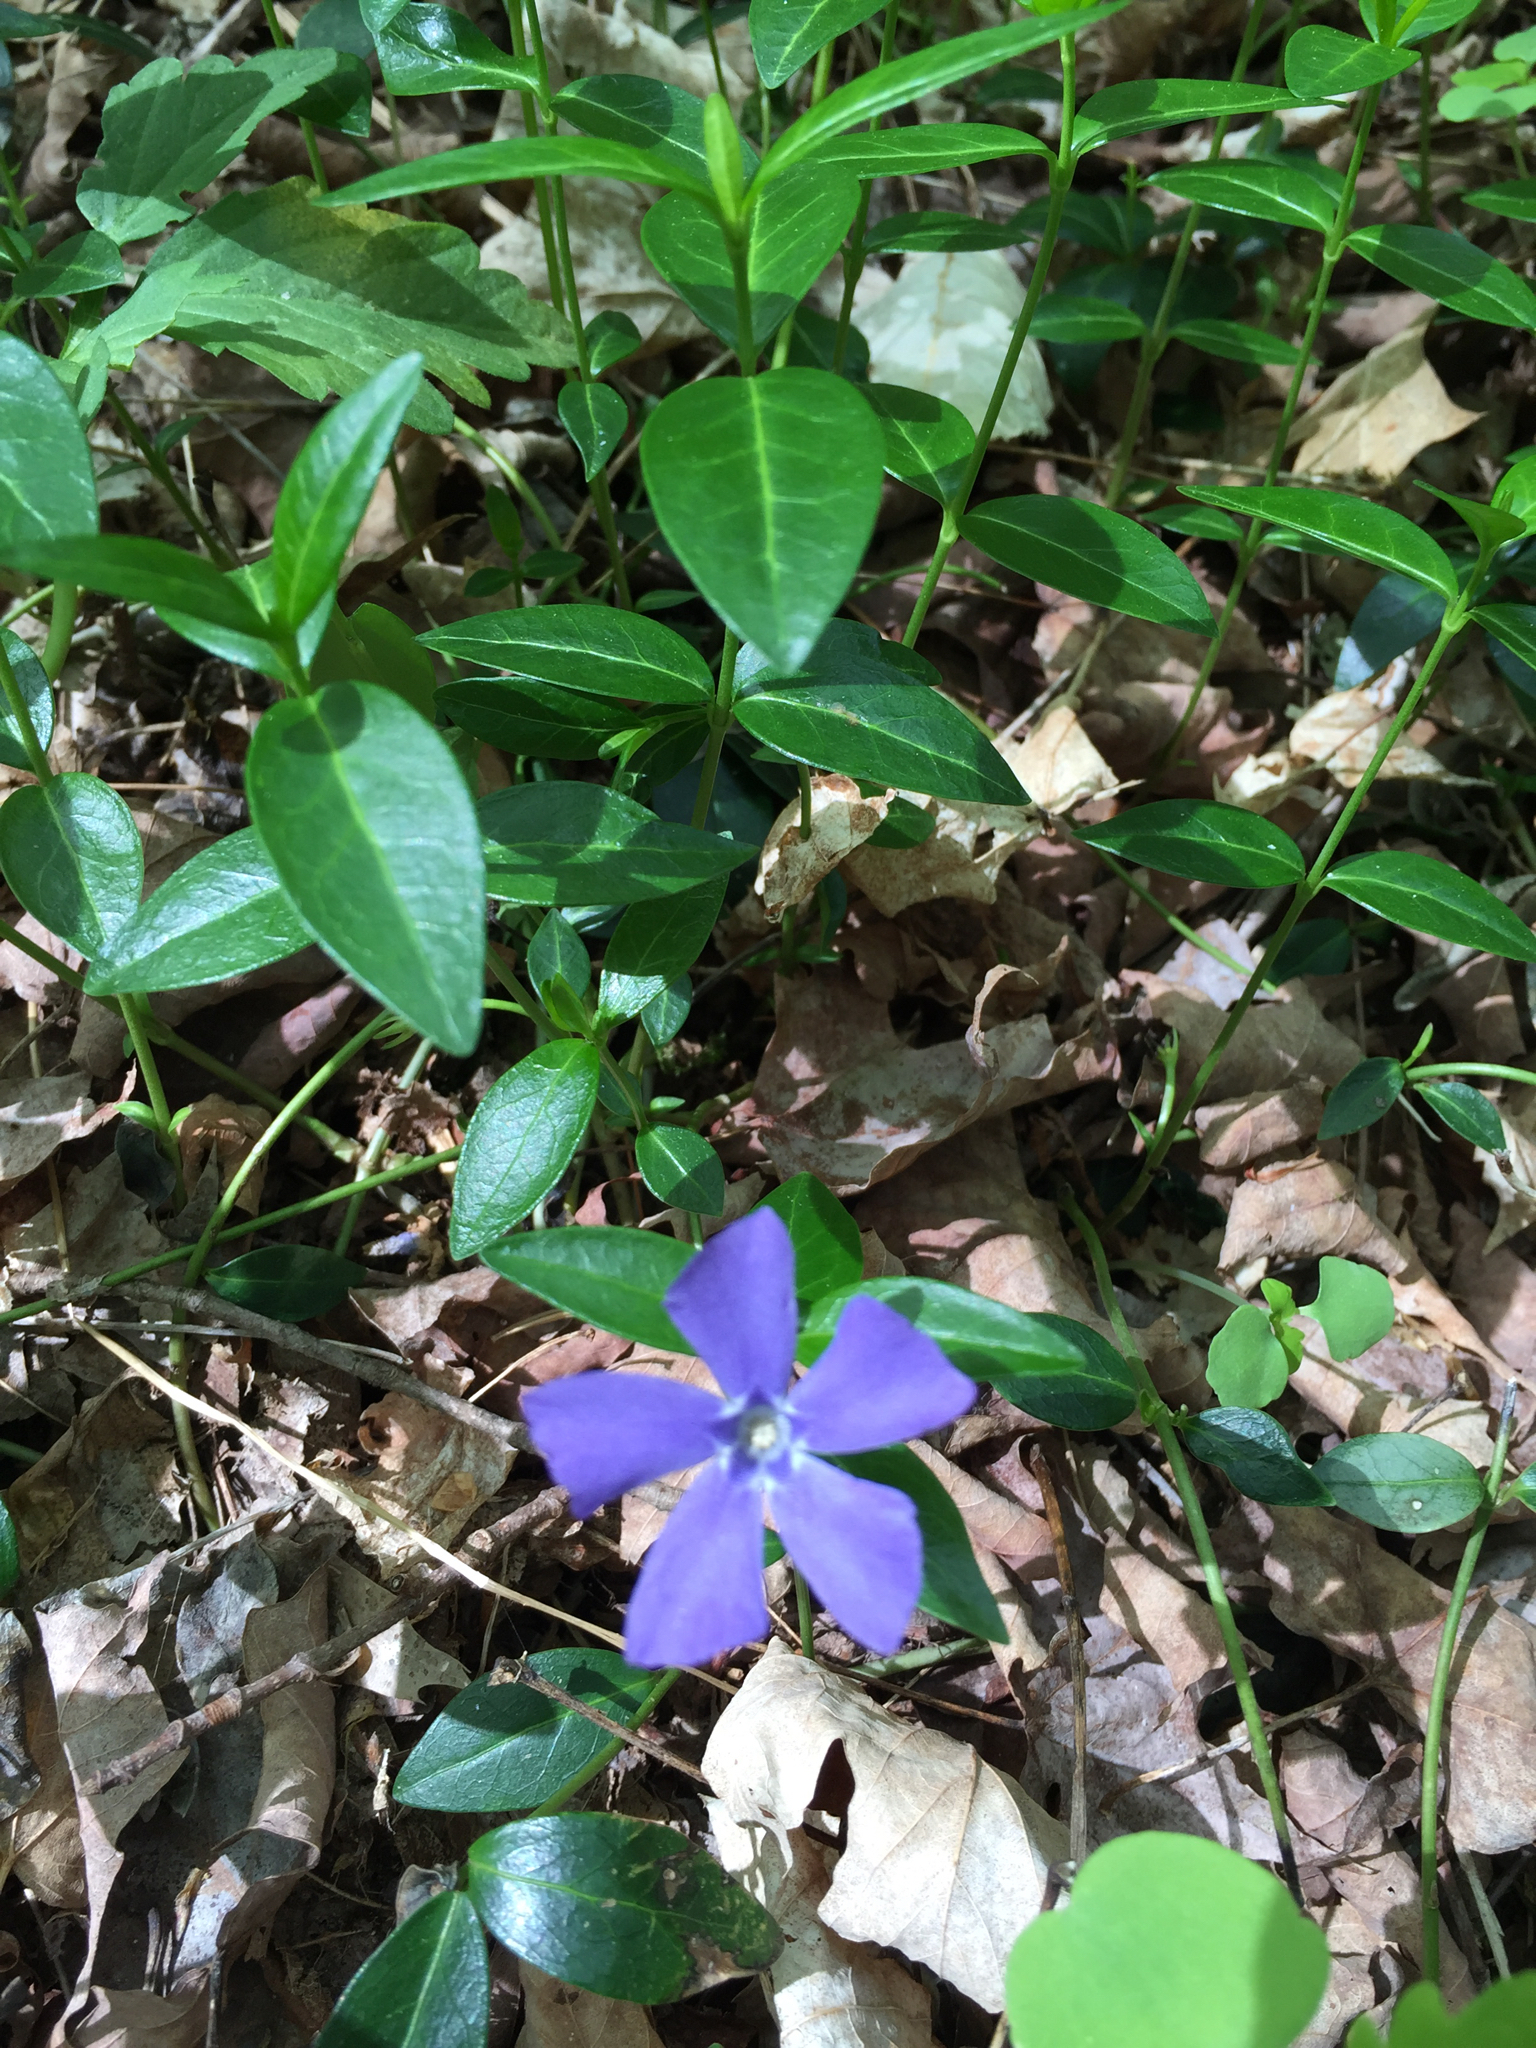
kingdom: Plantae
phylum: Tracheophyta
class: Magnoliopsida
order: Gentianales
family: Apocynaceae
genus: Vinca
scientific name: Vinca minor
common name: Lesser periwinkle
